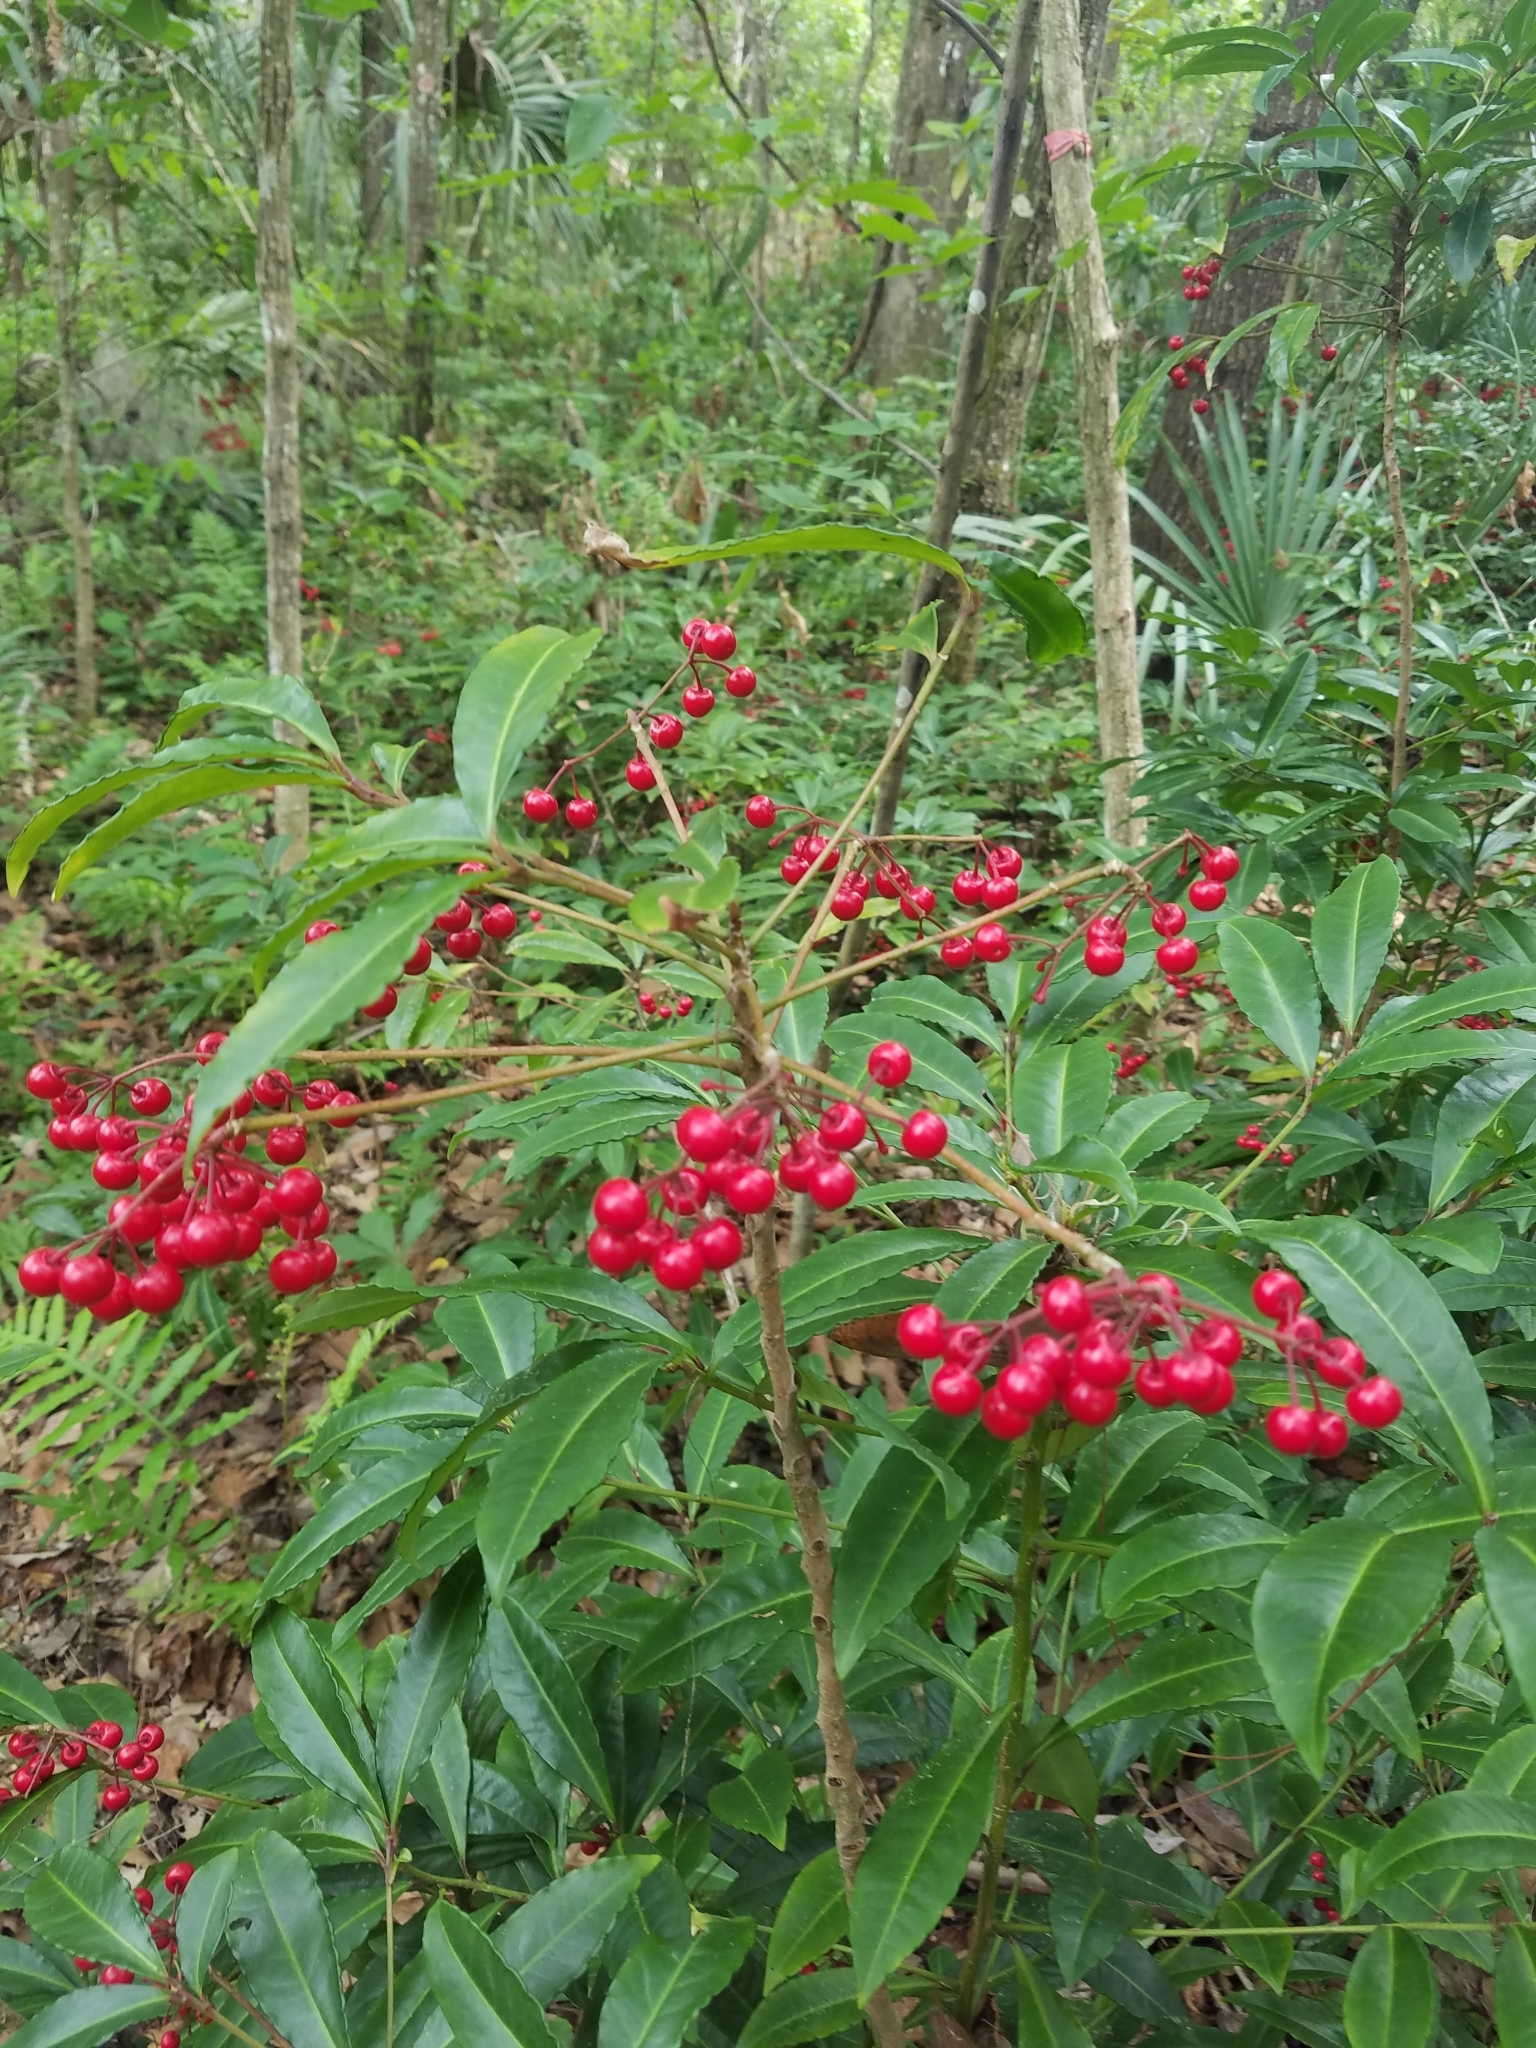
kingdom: Plantae
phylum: Tracheophyta
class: Magnoliopsida
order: Ericales
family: Primulaceae
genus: Ardisia
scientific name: Ardisia crenata
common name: Hen's eyes
